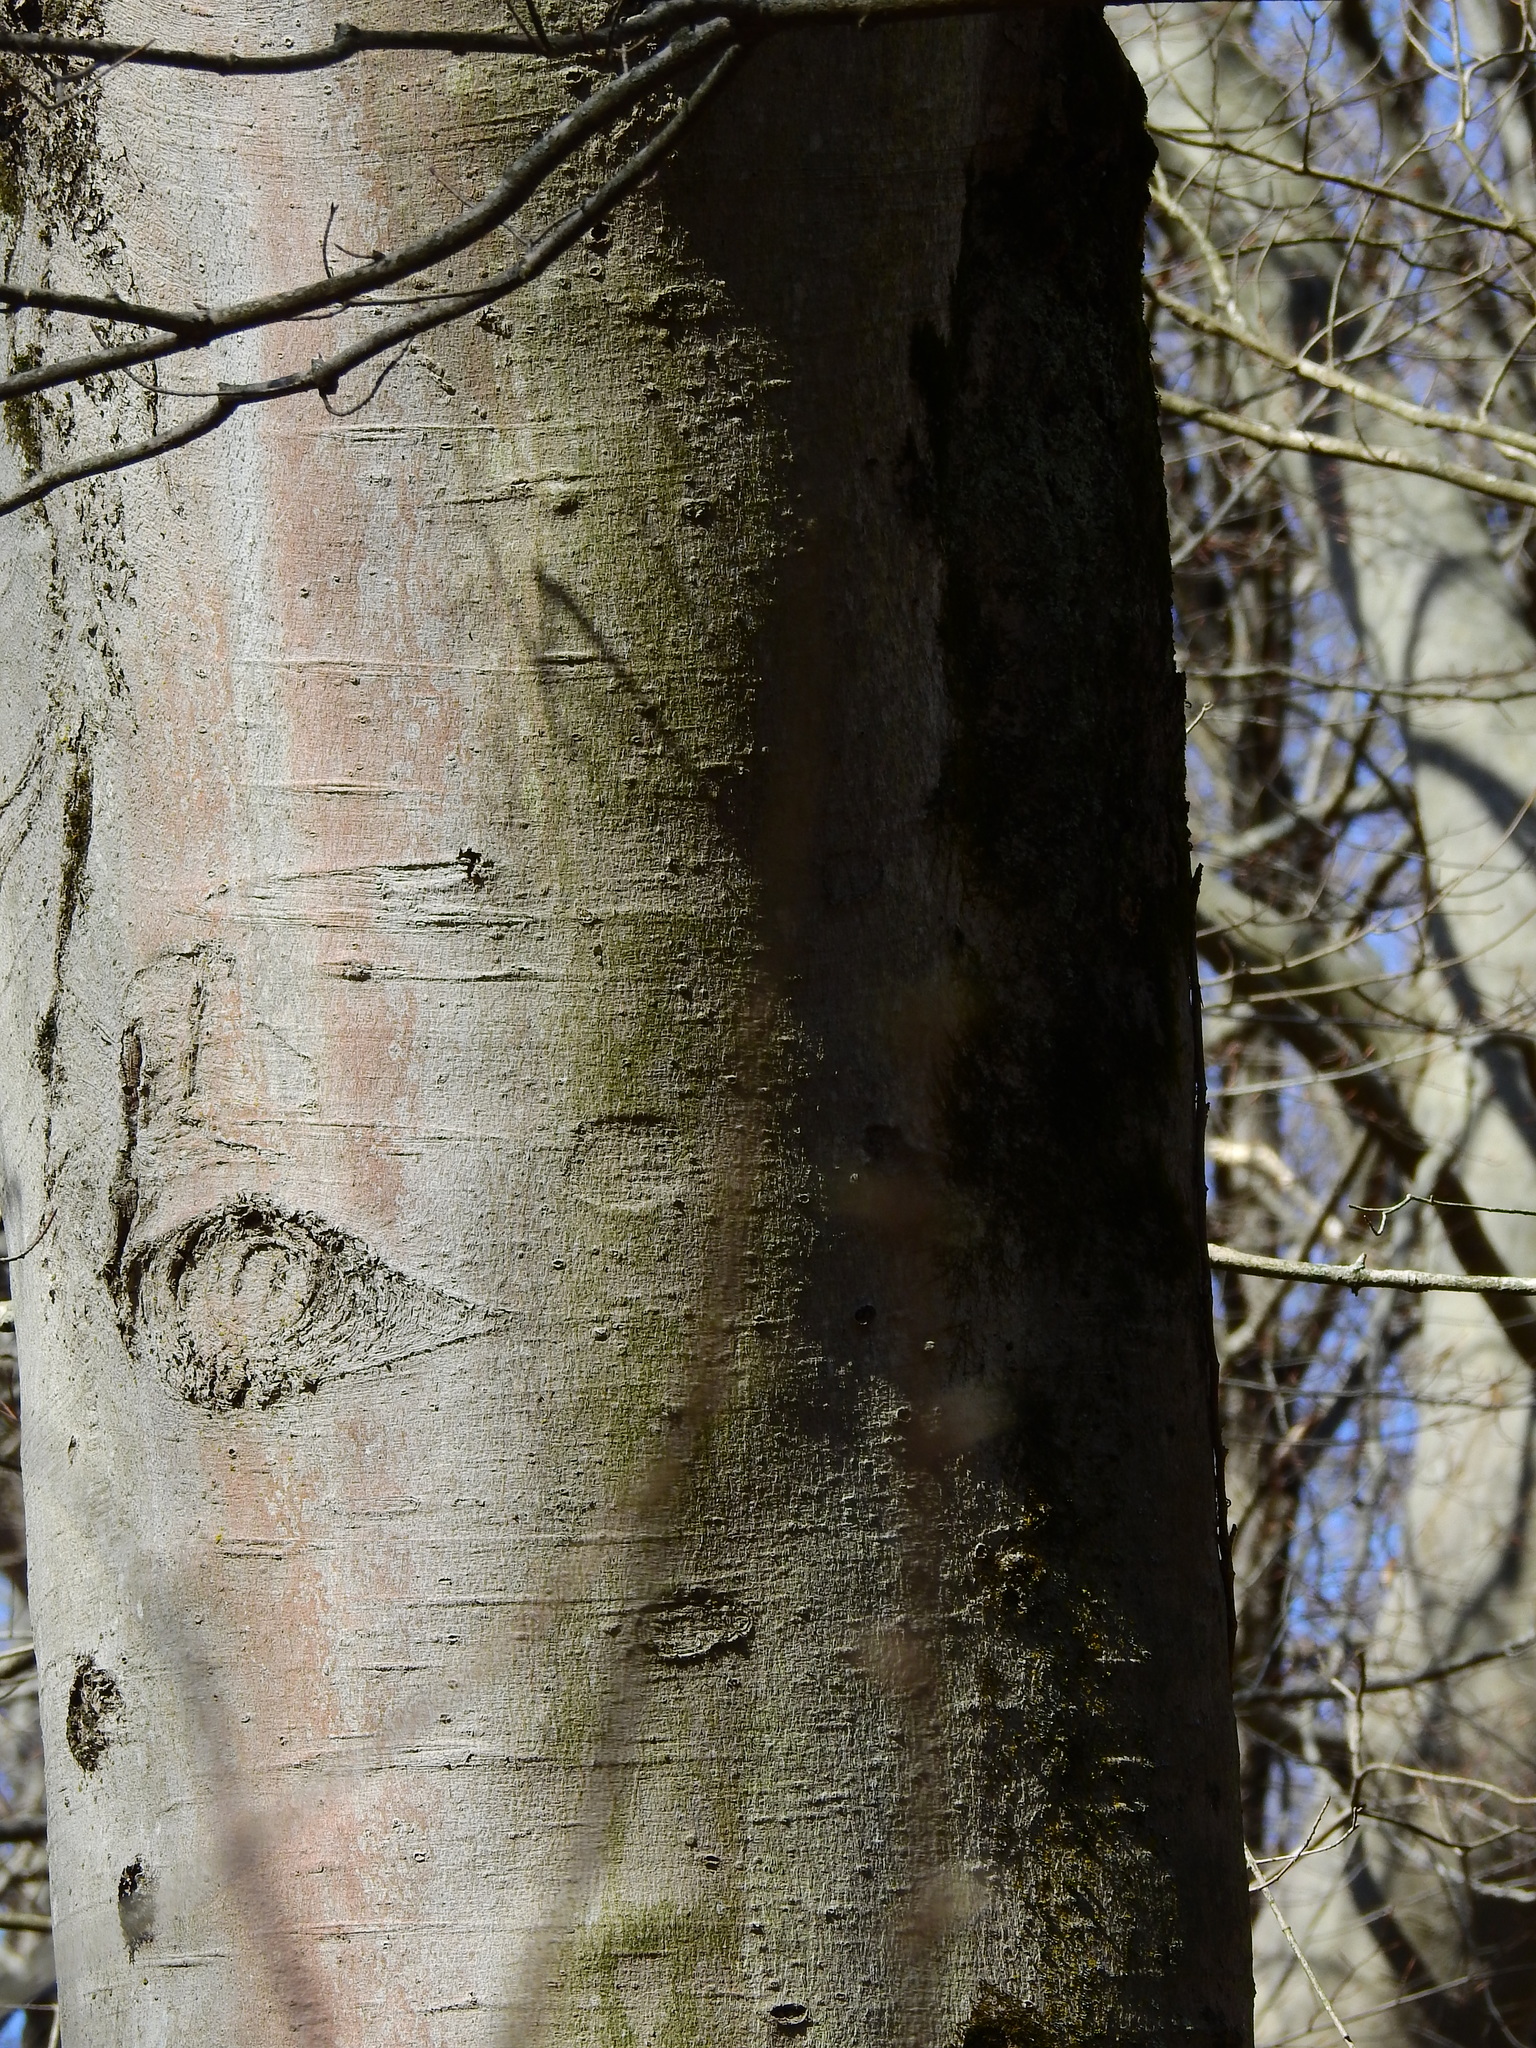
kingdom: Plantae
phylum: Tracheophyta
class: Magnoliopsida
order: Fagales
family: Fagaceae
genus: Fagus
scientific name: Fagus grandifolia
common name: American beech
